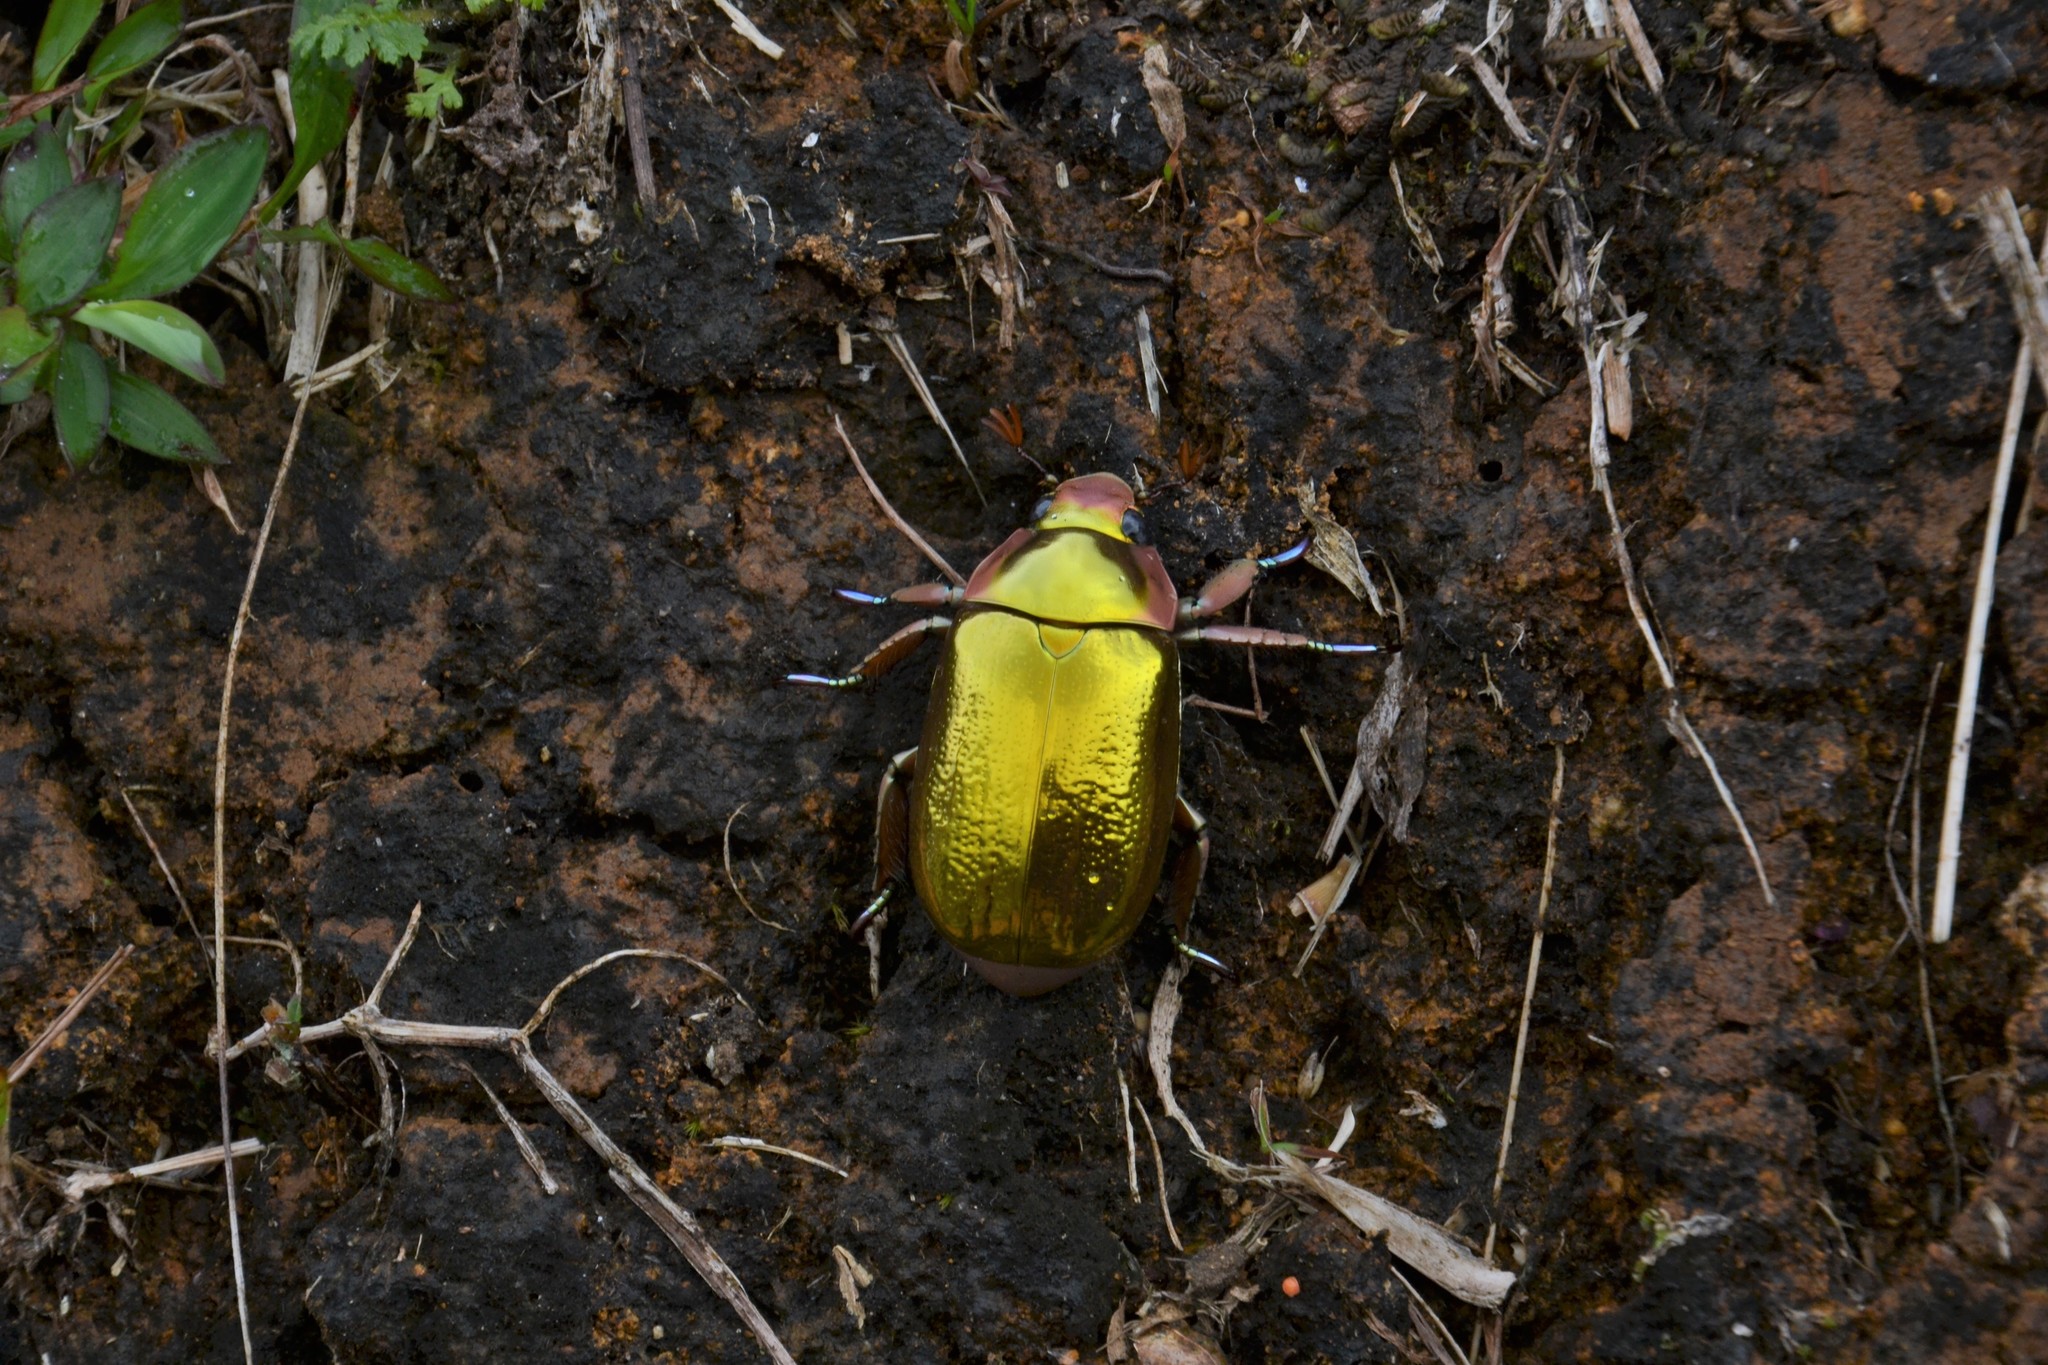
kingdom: Animalia
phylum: Arthropoda
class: Insecta
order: Coleoptera
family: Scarabaeidae
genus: Chrysina
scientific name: Chrysina aurigans
